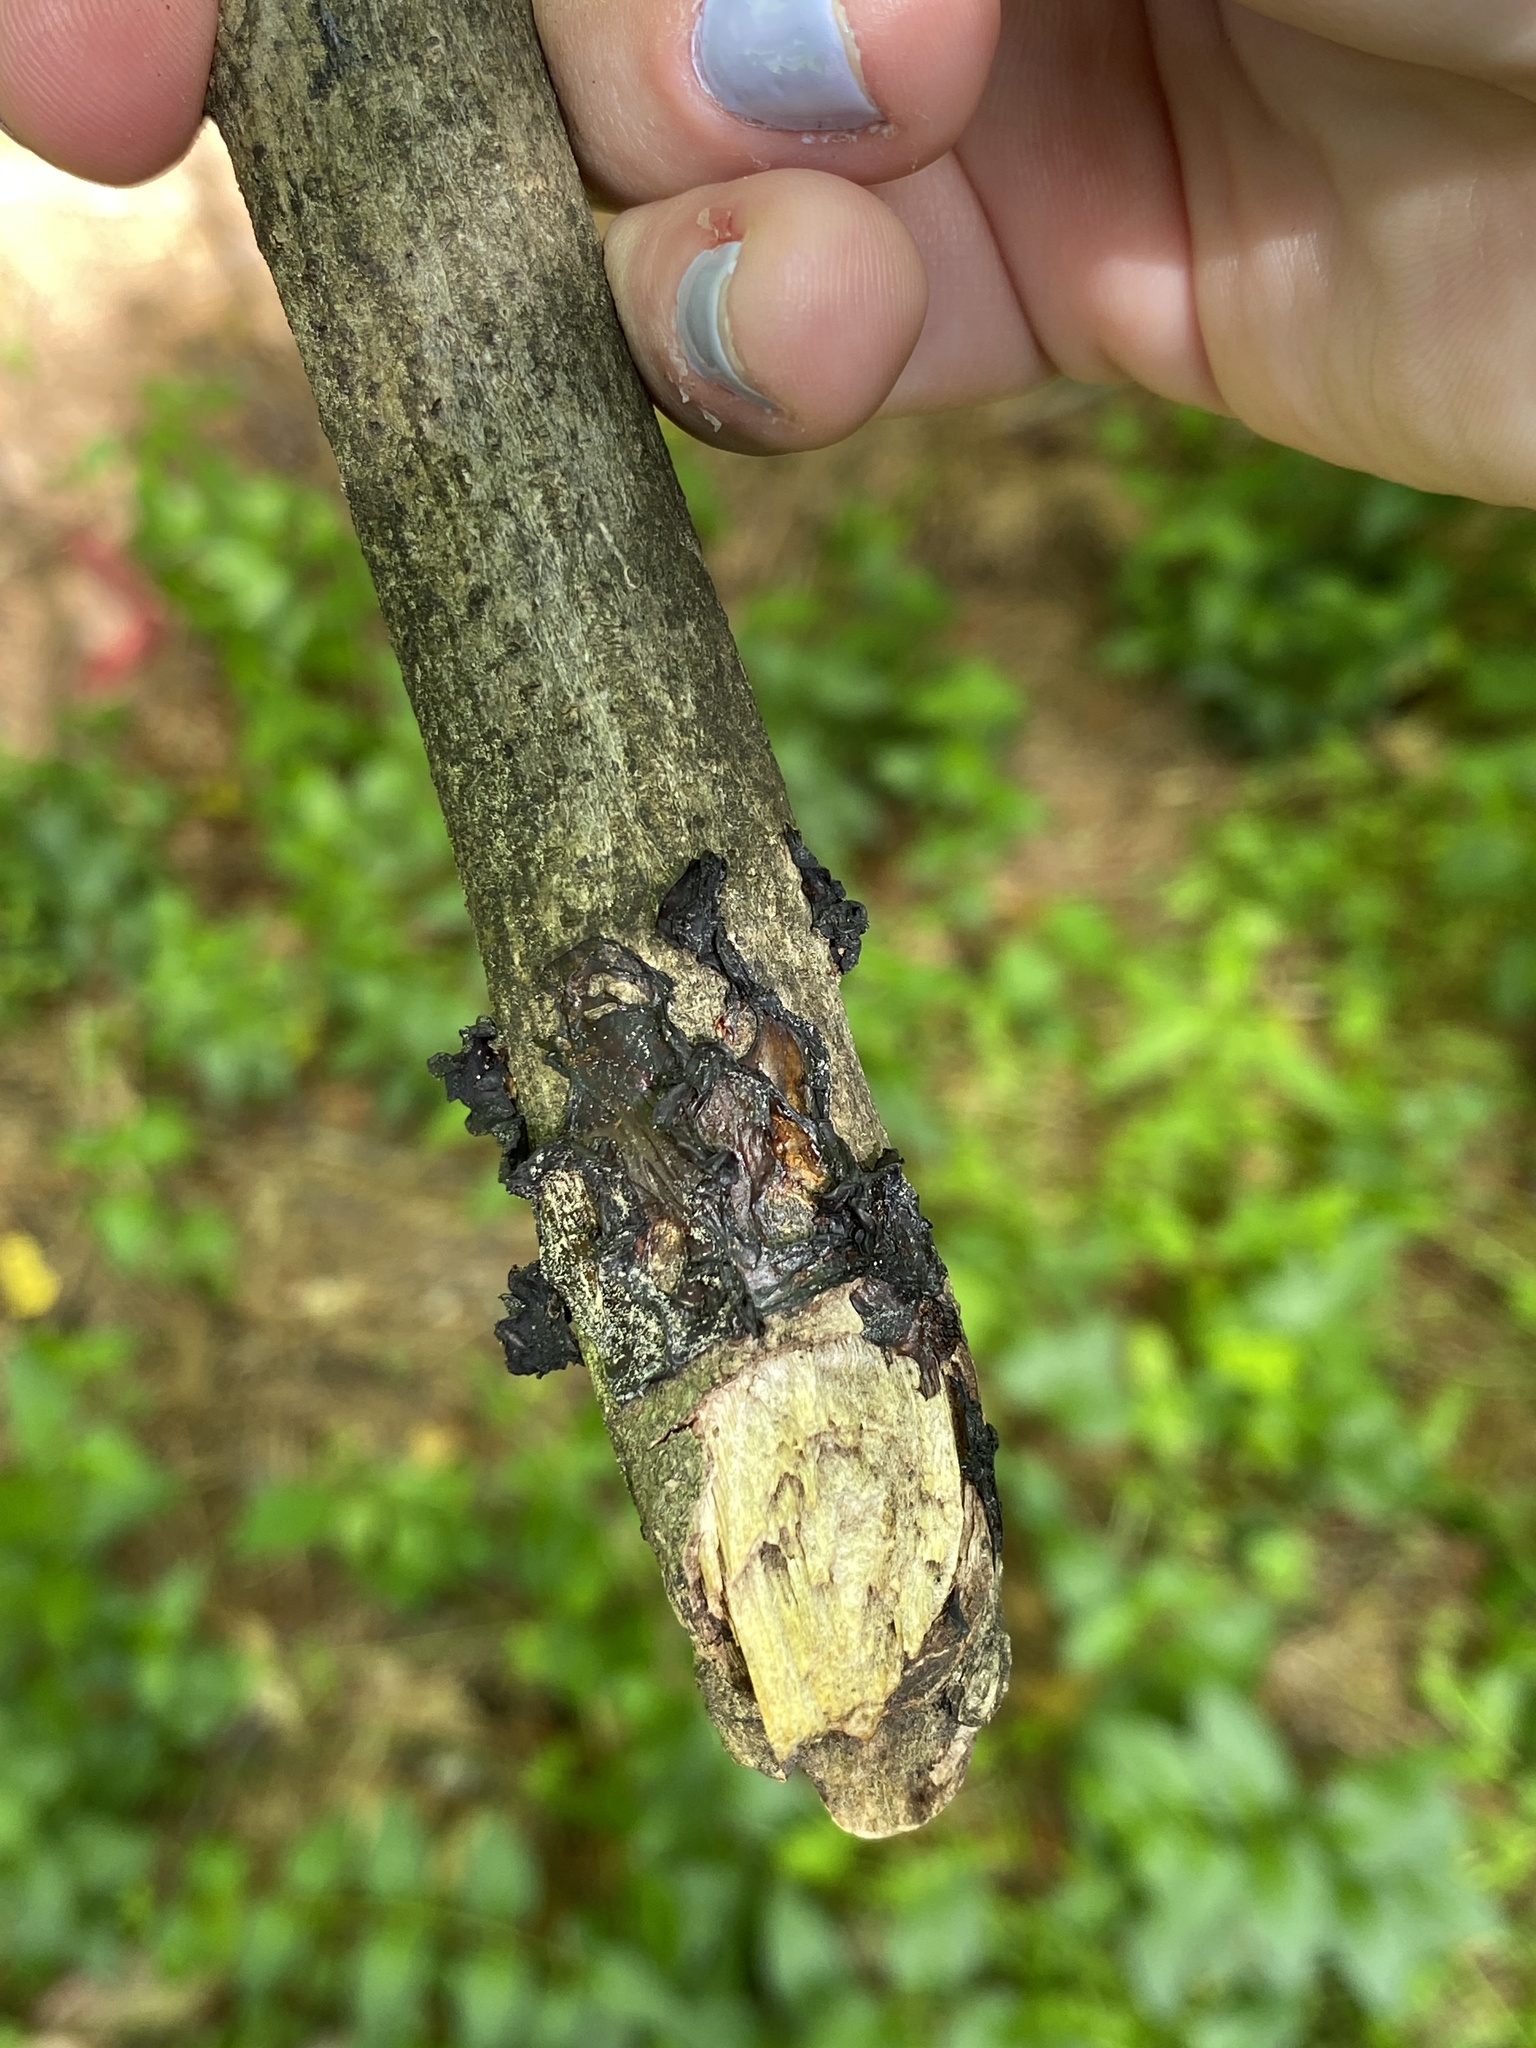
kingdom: Fungi
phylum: Basidiomycota
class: Agaricomycetes
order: Auriculariales
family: Auriculariaceae
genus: Exidia
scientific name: Exidia glandulosa
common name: Witches' butter
